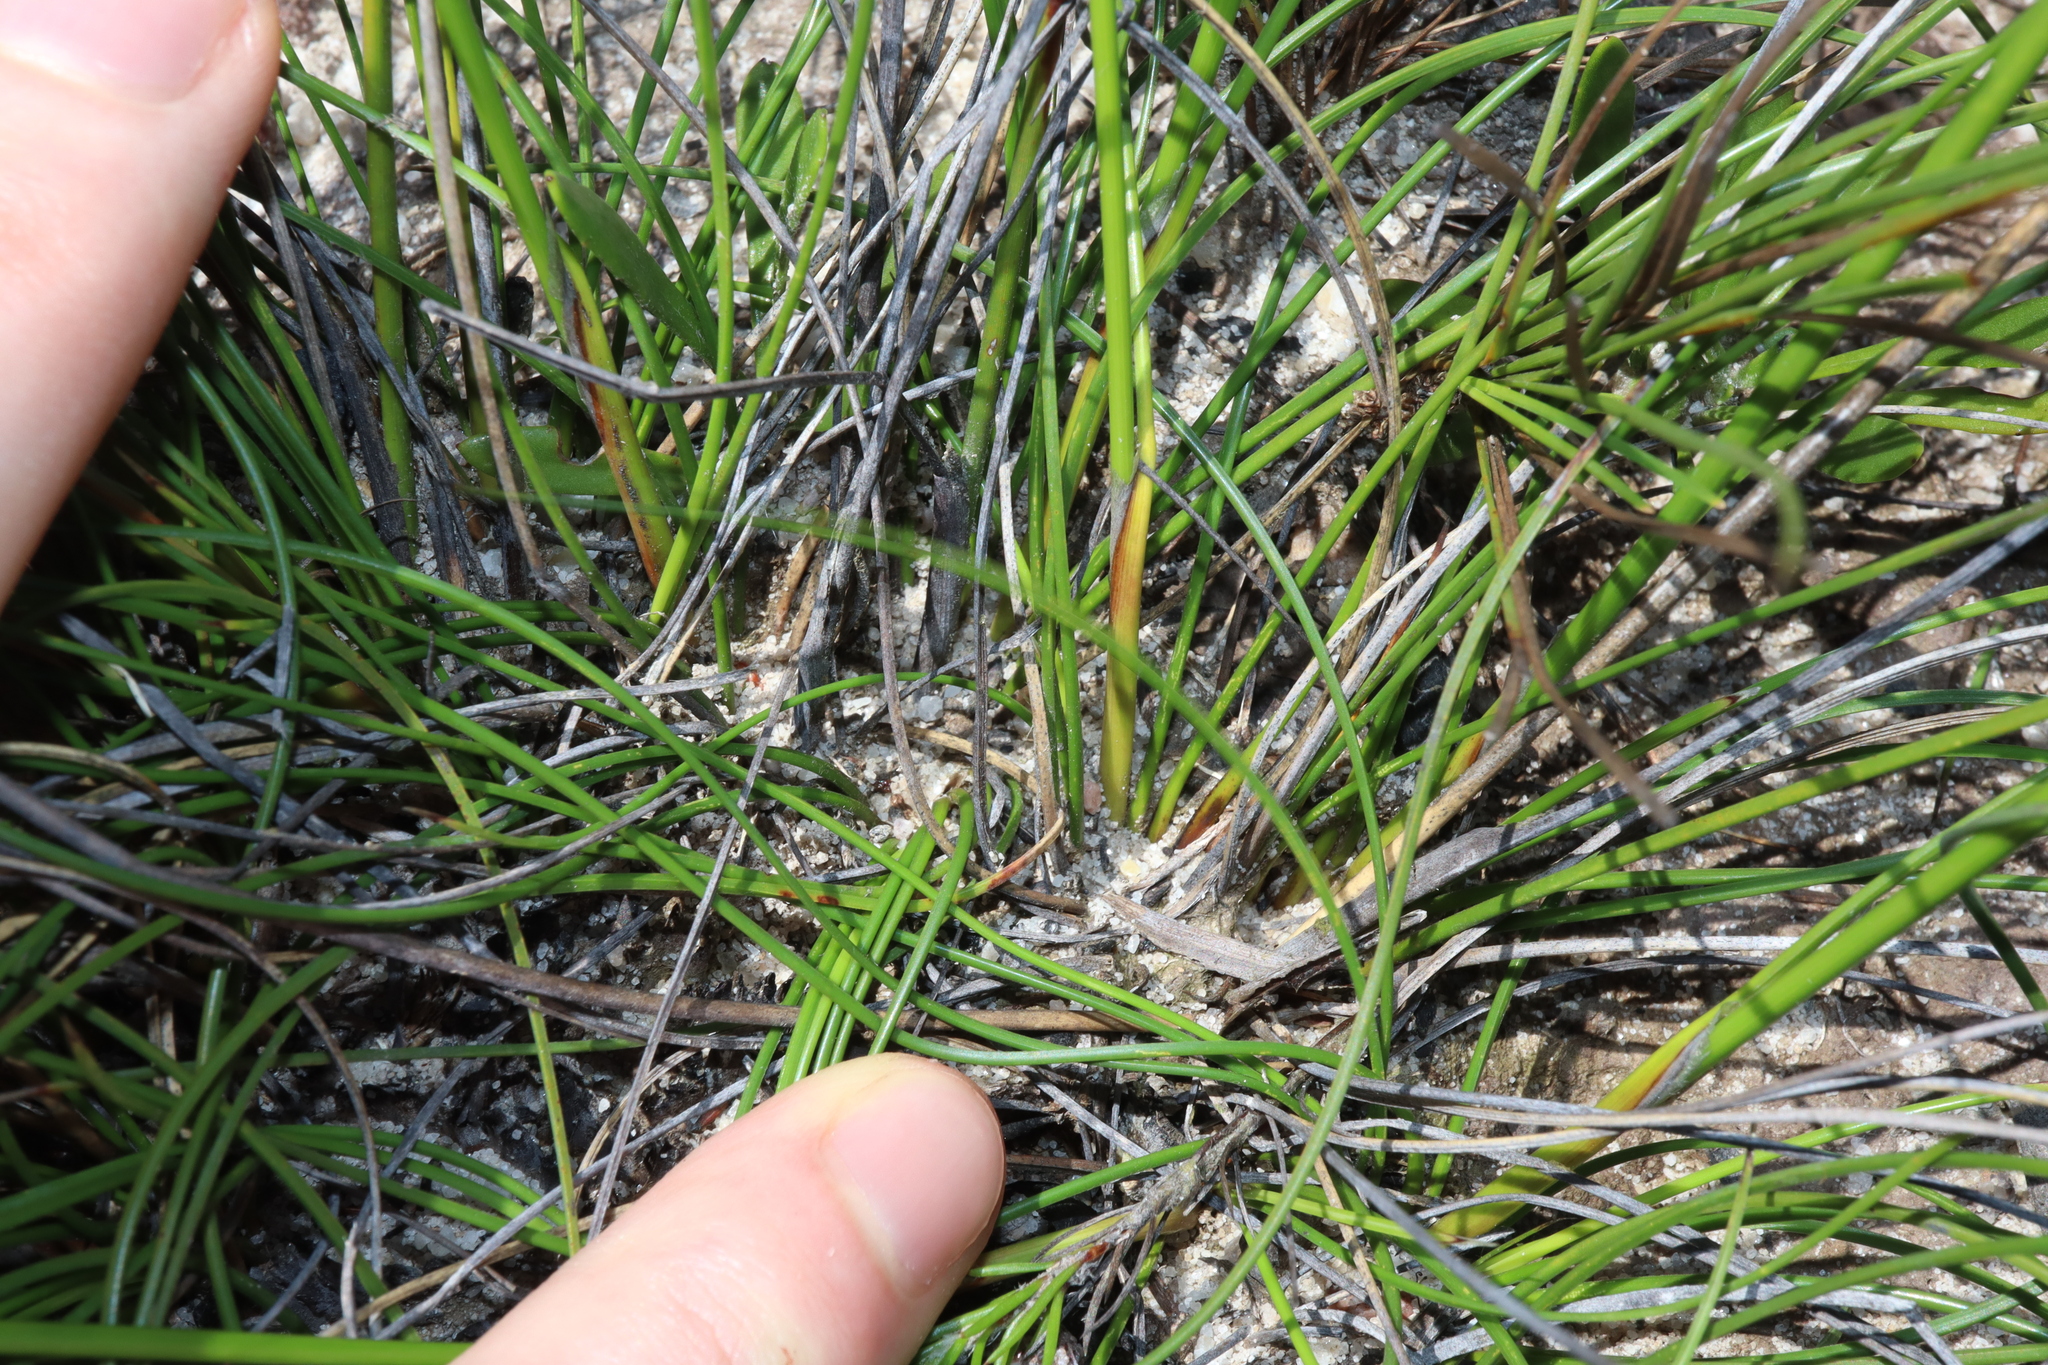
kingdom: Plantae
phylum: Tracheophyta
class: Liliopsida
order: Poales
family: Cyperaceae
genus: Ptilothrix
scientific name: Ptilothrix deusta
